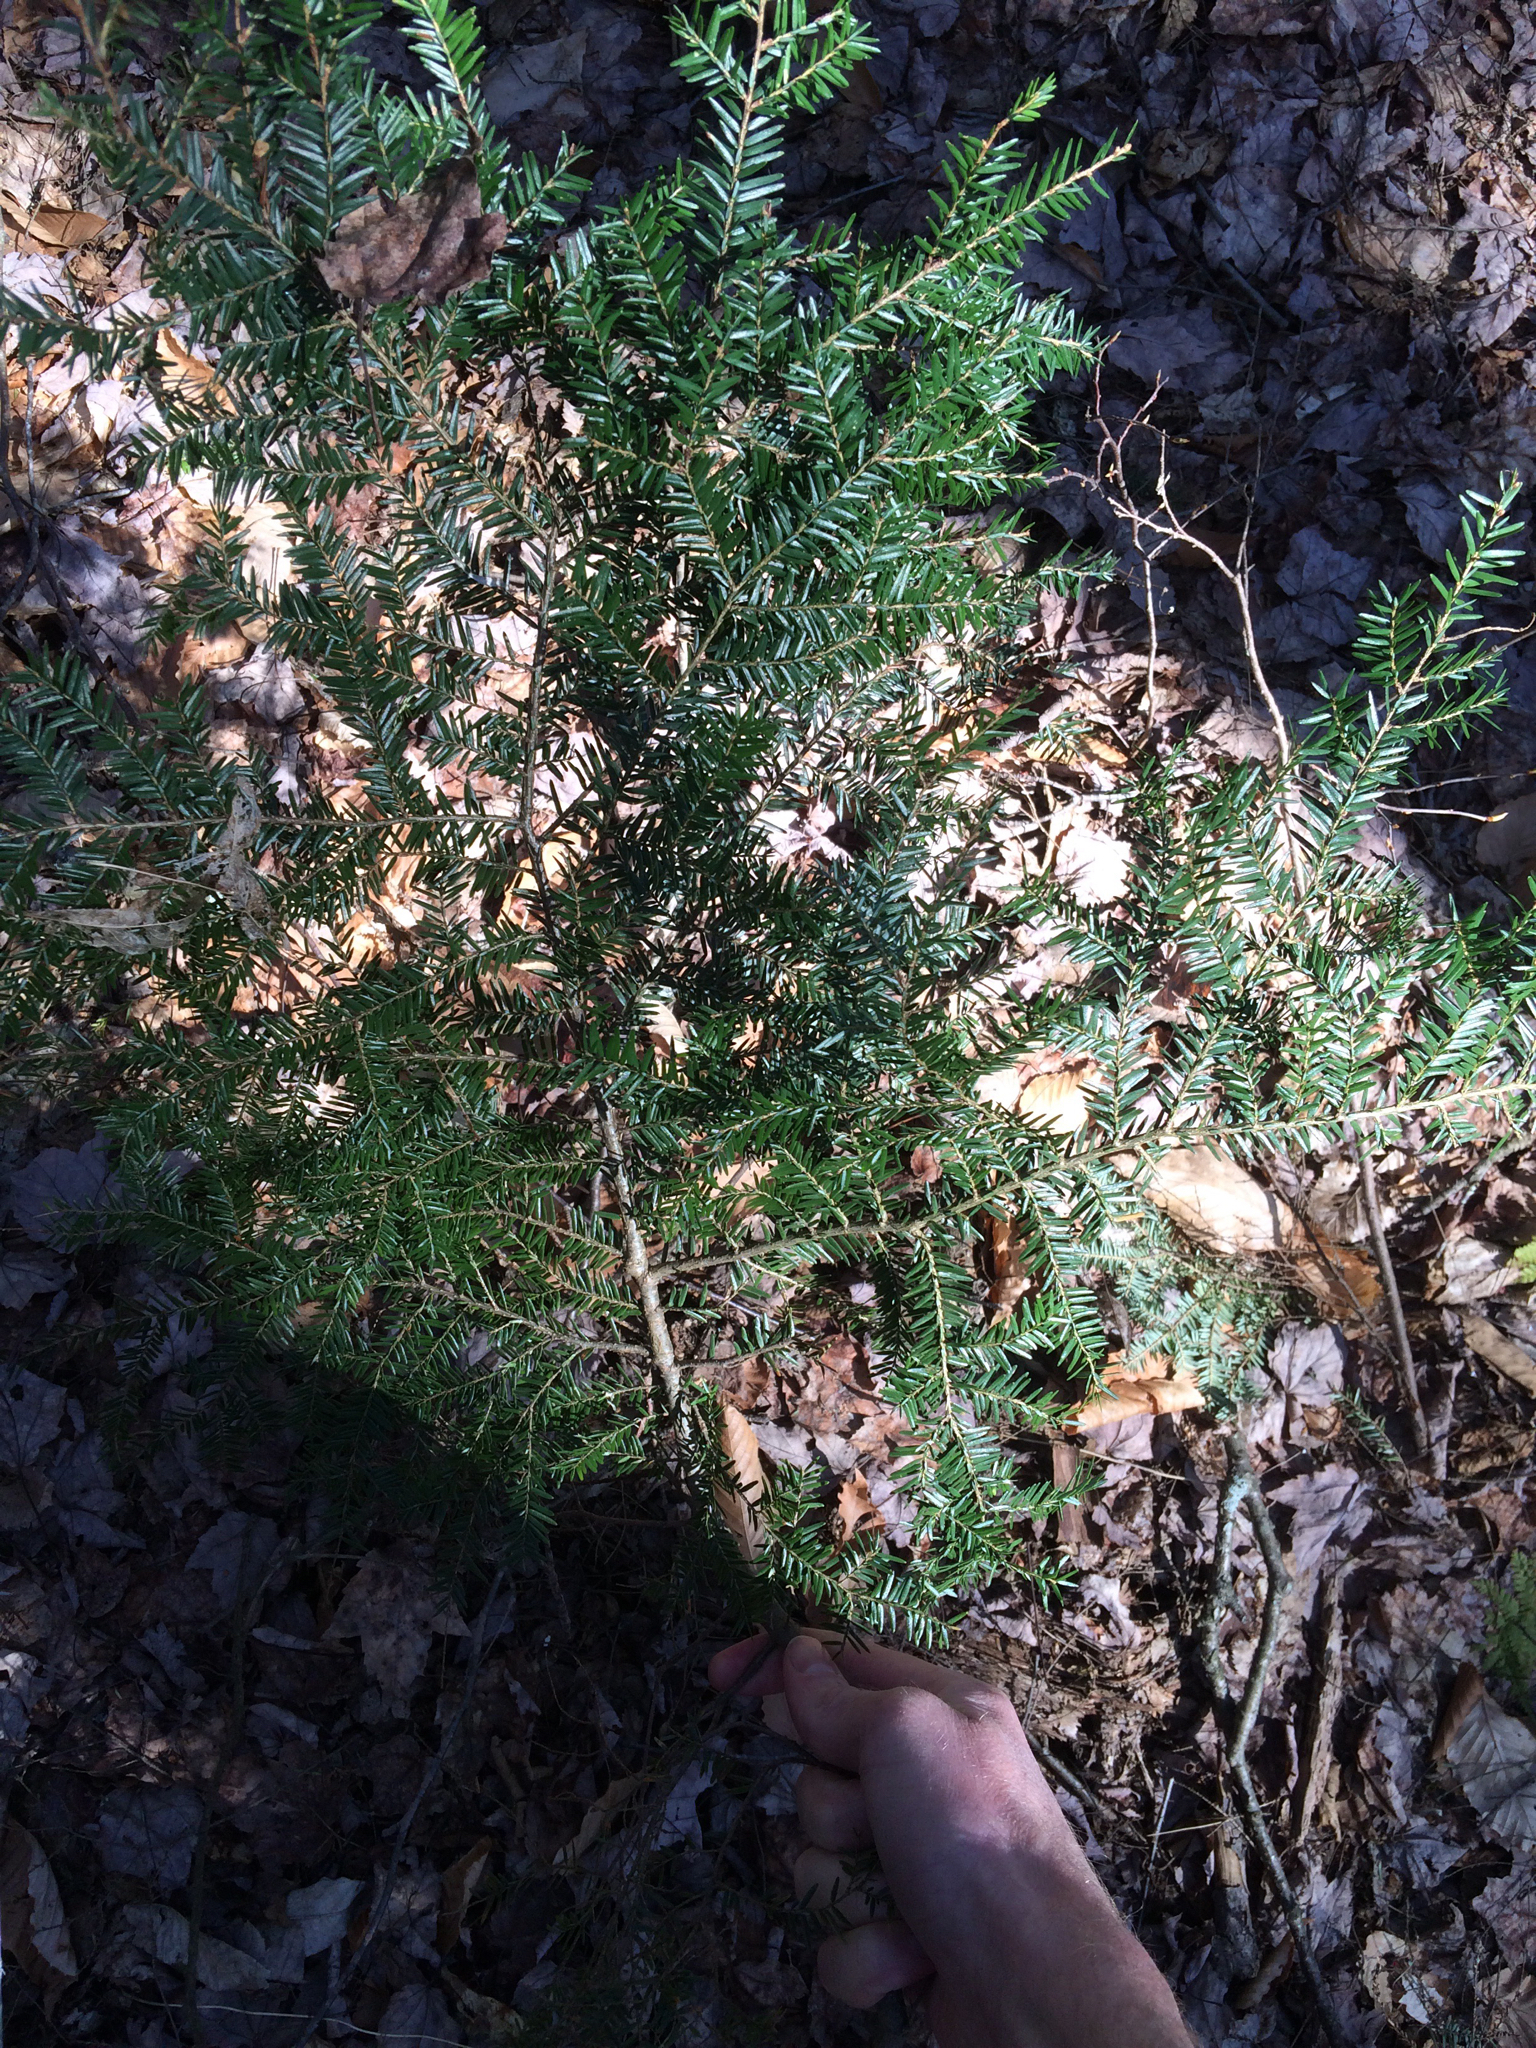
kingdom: Plantae
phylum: Tracheophyta
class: Pinopsida
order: Pinales
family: Pinaceae
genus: Tsuga
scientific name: Tsuga canadensis
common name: Eastern hemlock
